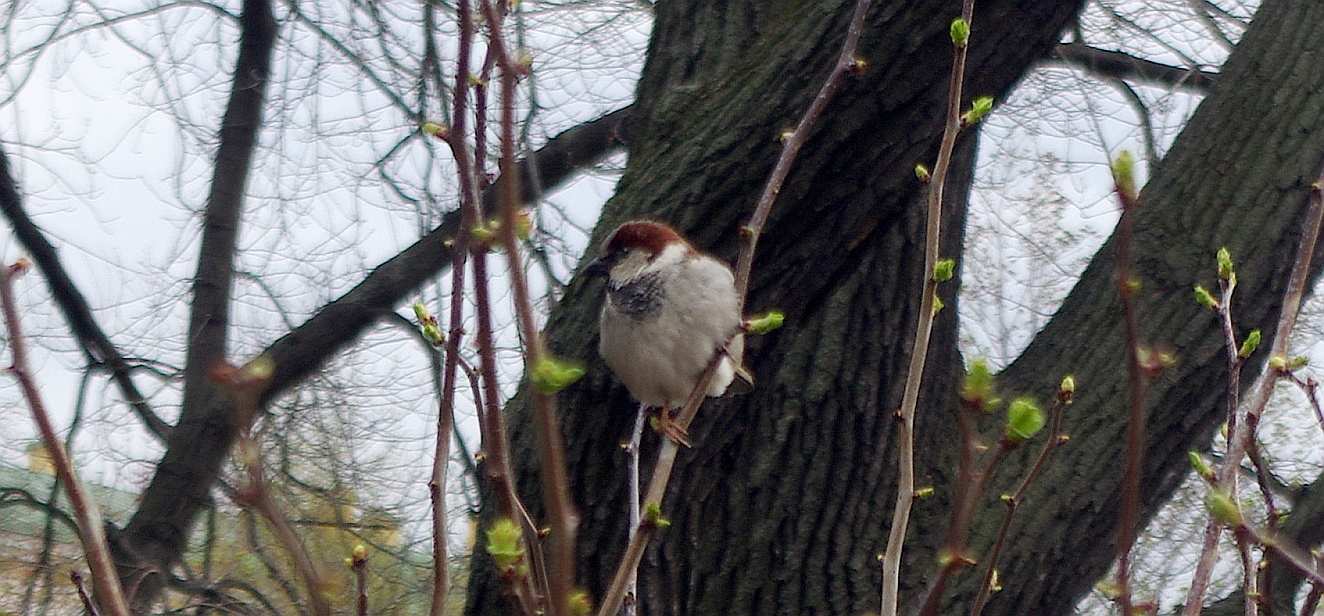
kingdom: Animalia
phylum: Chordata
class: Aves
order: Passeriformes
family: Passeridae
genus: Passer
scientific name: Passer domesticus
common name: House sparrow
